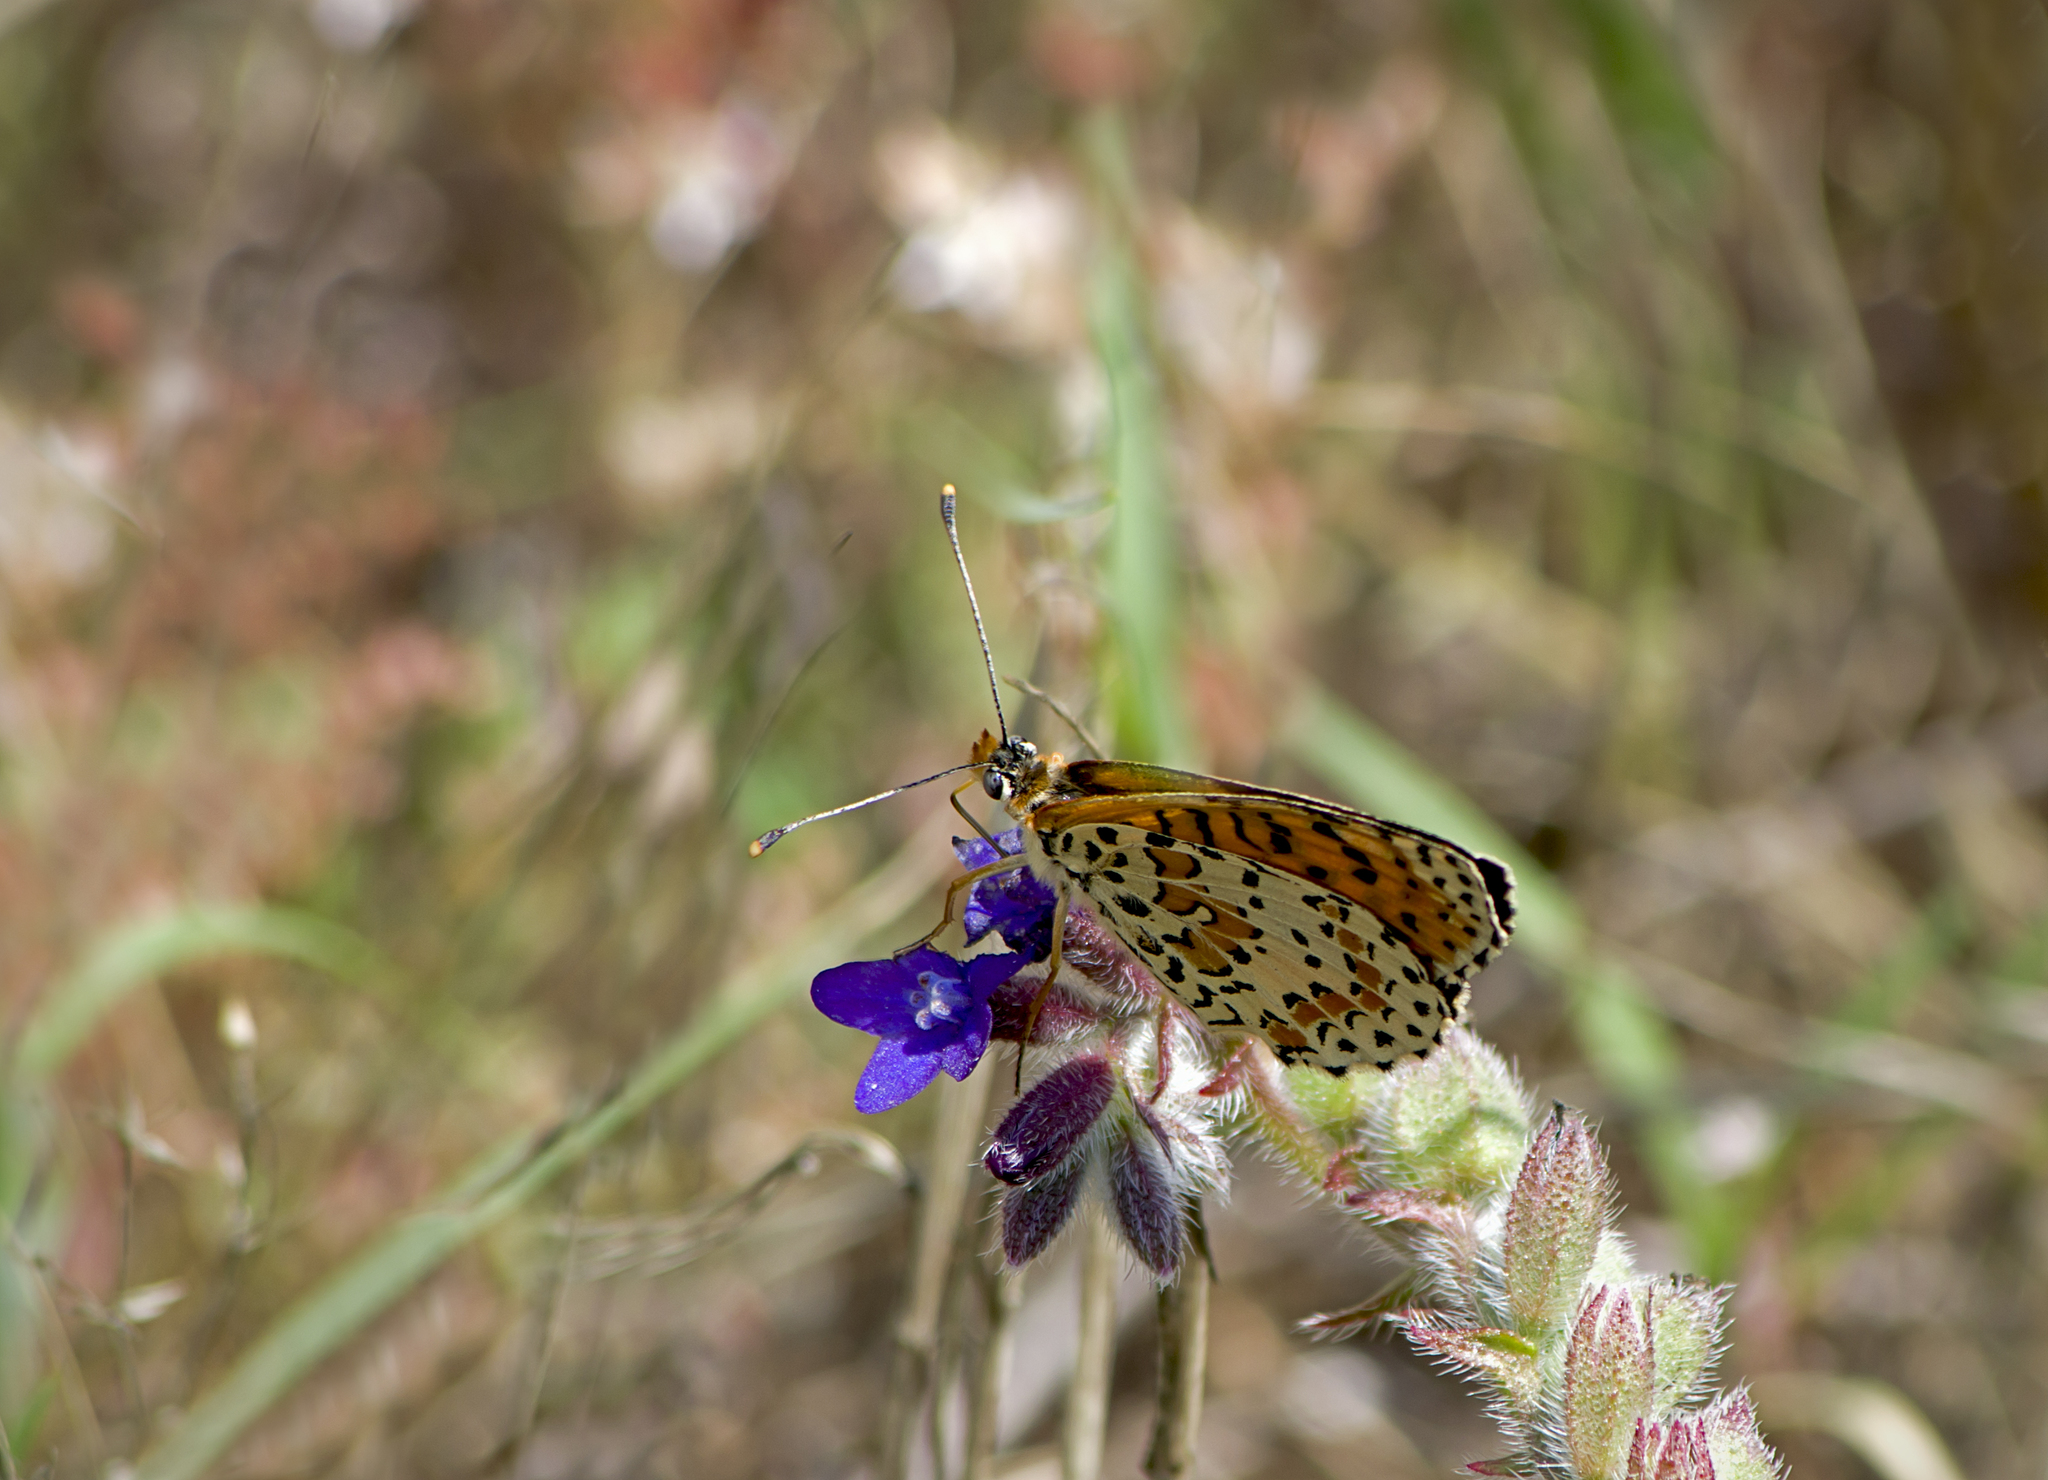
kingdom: Animalia
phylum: Arthropoda
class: Insecta
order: Lepidoptera
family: Nymphalidae
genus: Melitaea
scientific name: Melitaea didyma
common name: Spotted fritillary
